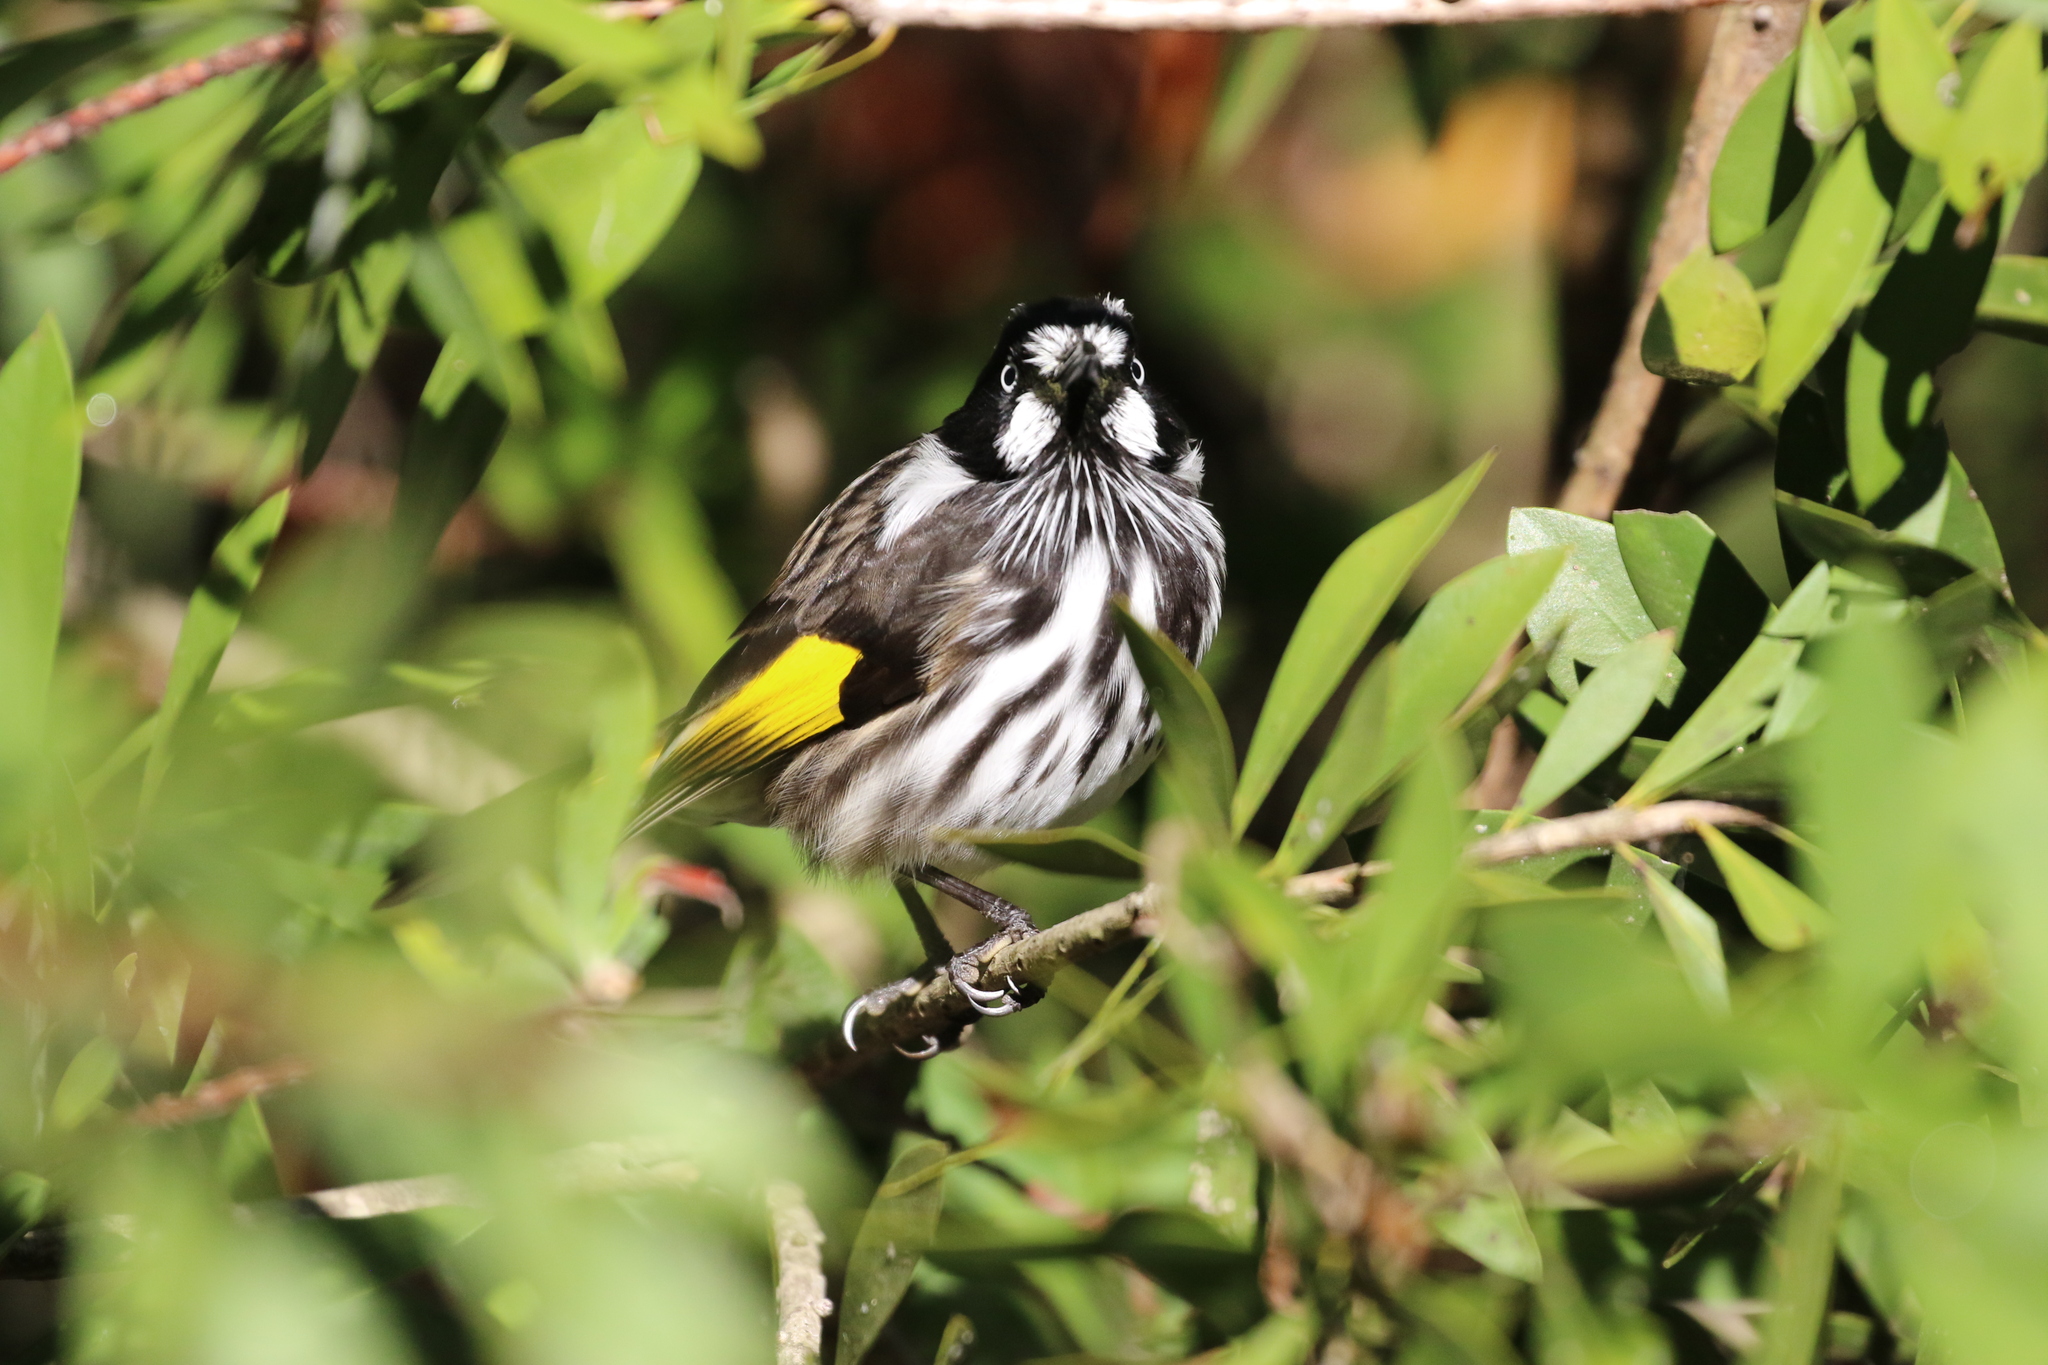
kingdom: Animalia
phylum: Chordata
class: Aves
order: Passeriformes
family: Meliphagidae
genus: Phylidonyris
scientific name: Phylidonyris novaehollandiae
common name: New holland honeyeater
